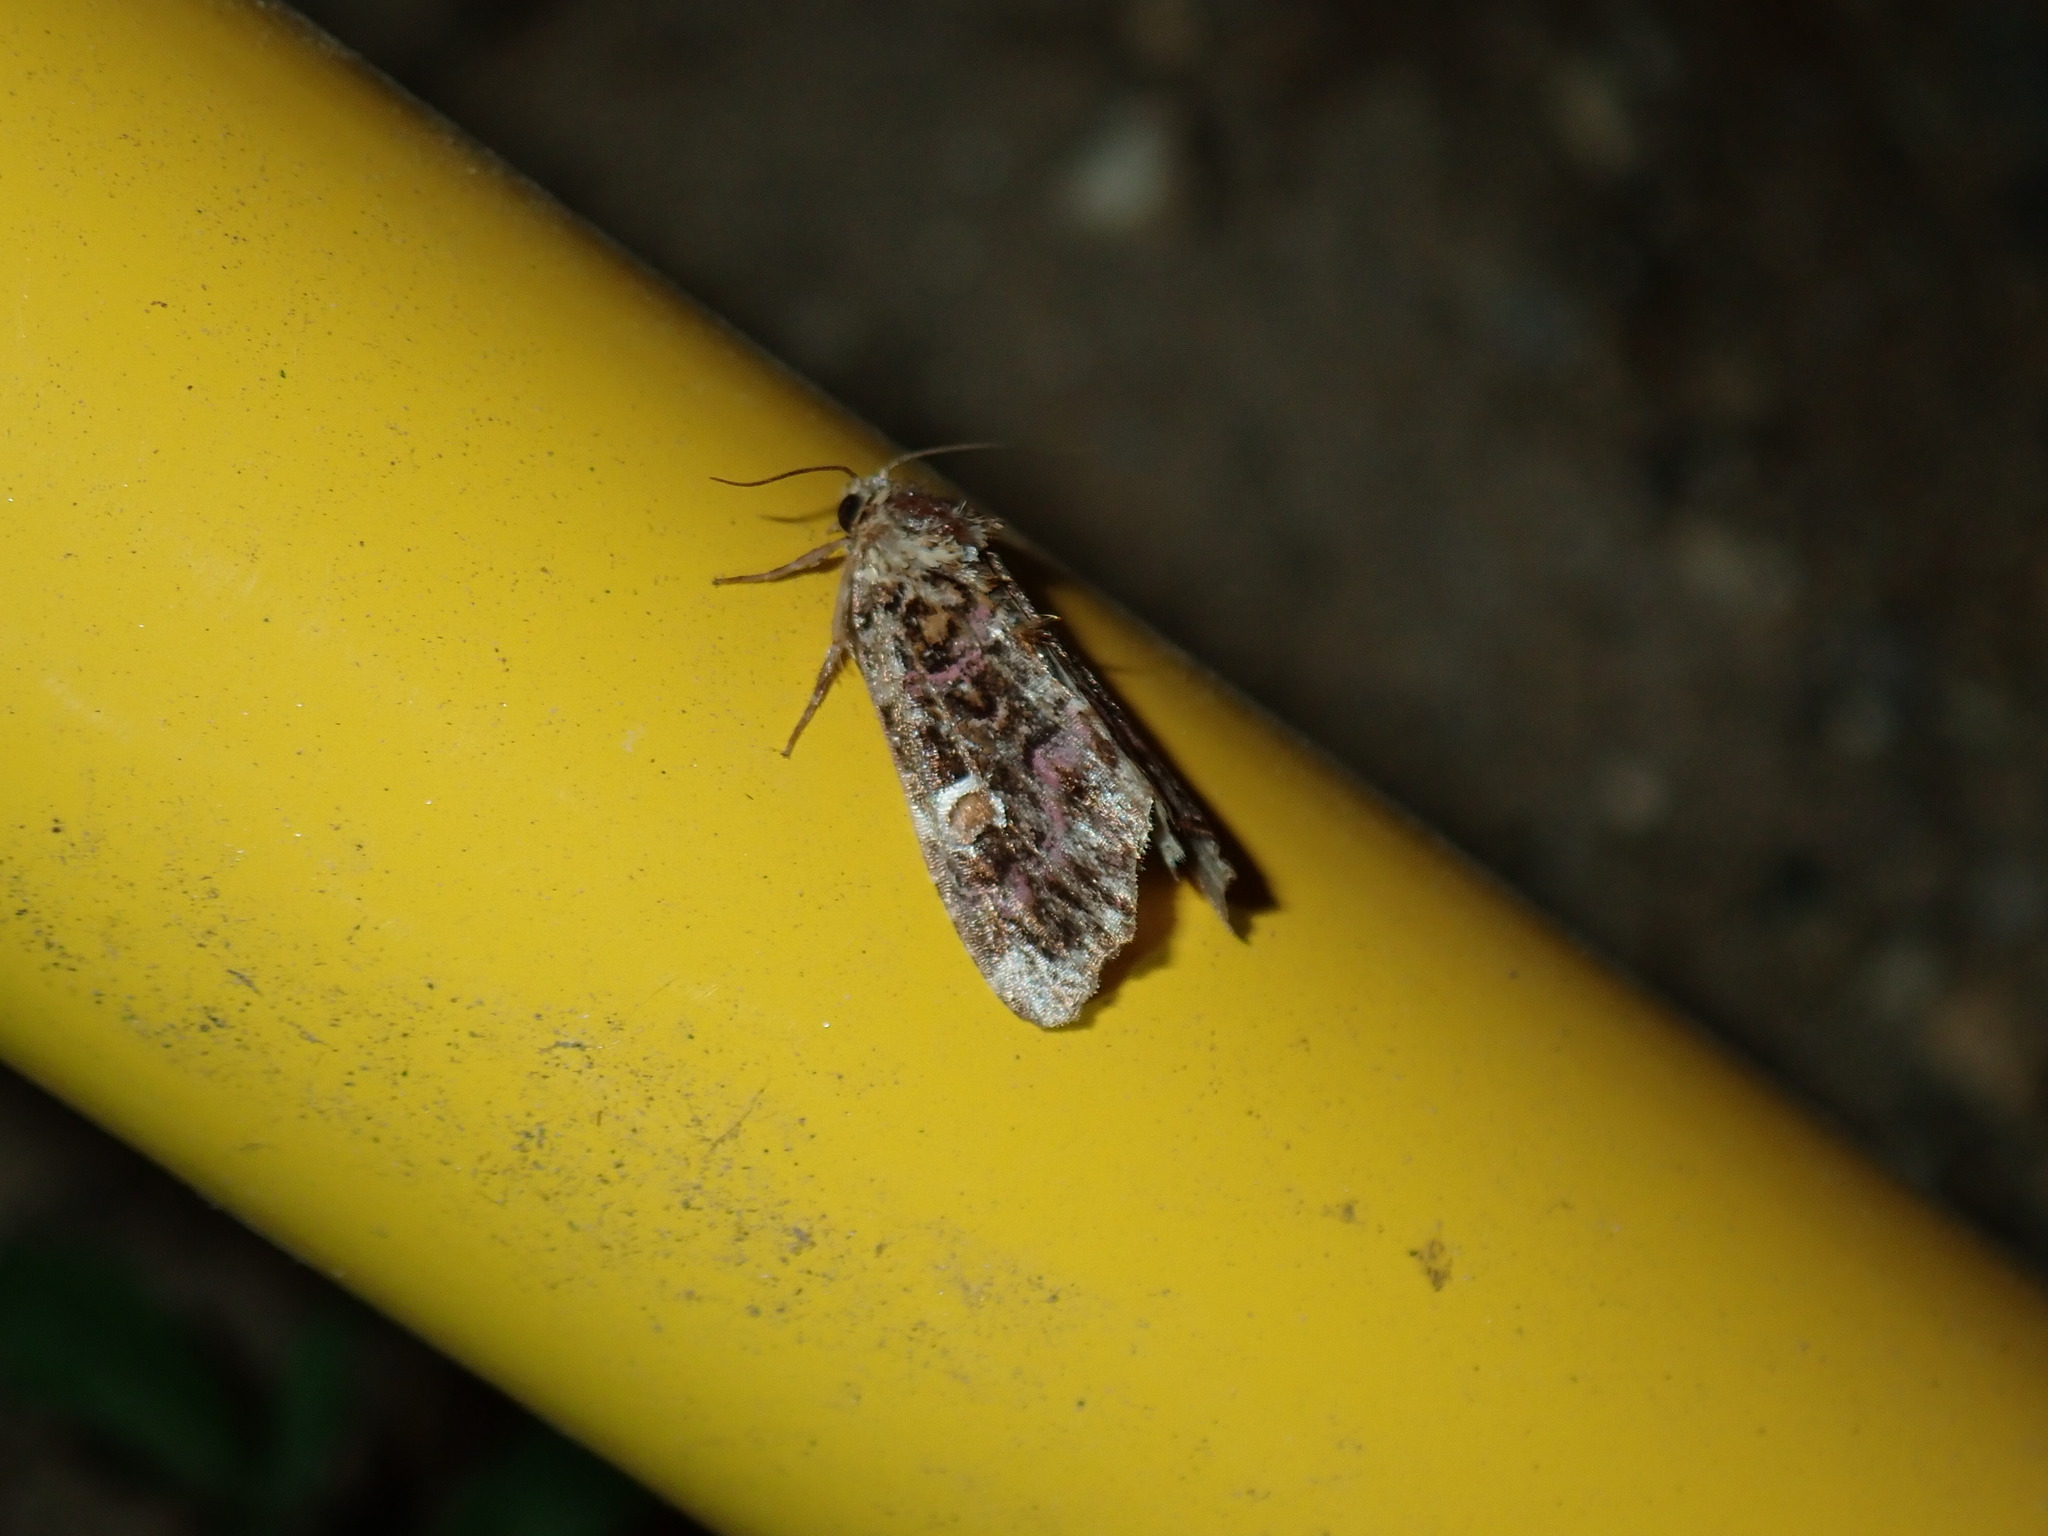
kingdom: Animalia
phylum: Arthropoda
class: Insecta
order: Lepidoptera
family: Noctuidae
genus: Callopistria
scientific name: Callopistria mollissima
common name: Pink-shaded fern moth
